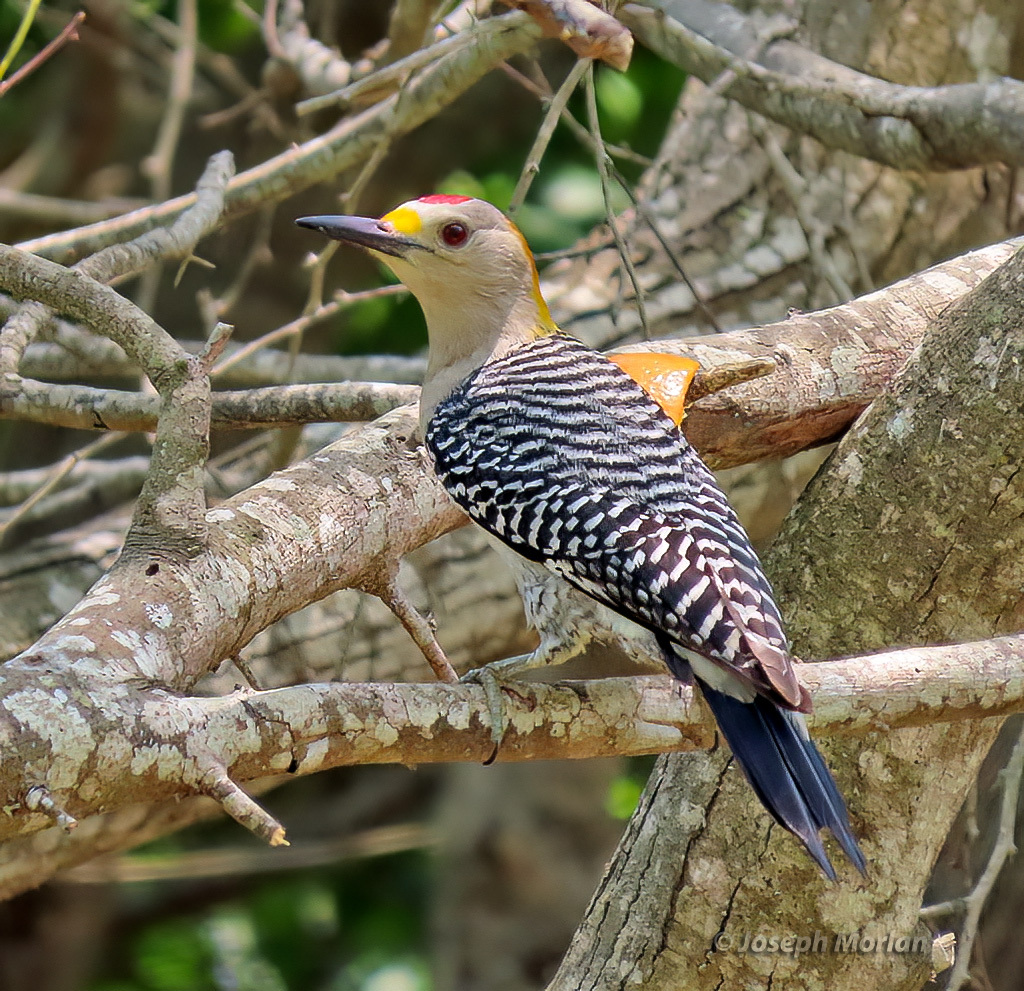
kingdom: Animalia
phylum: Chordata
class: Aves
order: Piciformes
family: Picidae
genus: Melanerpes
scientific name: Melanerpes aurifrons
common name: Golden-fronted woodpecker
